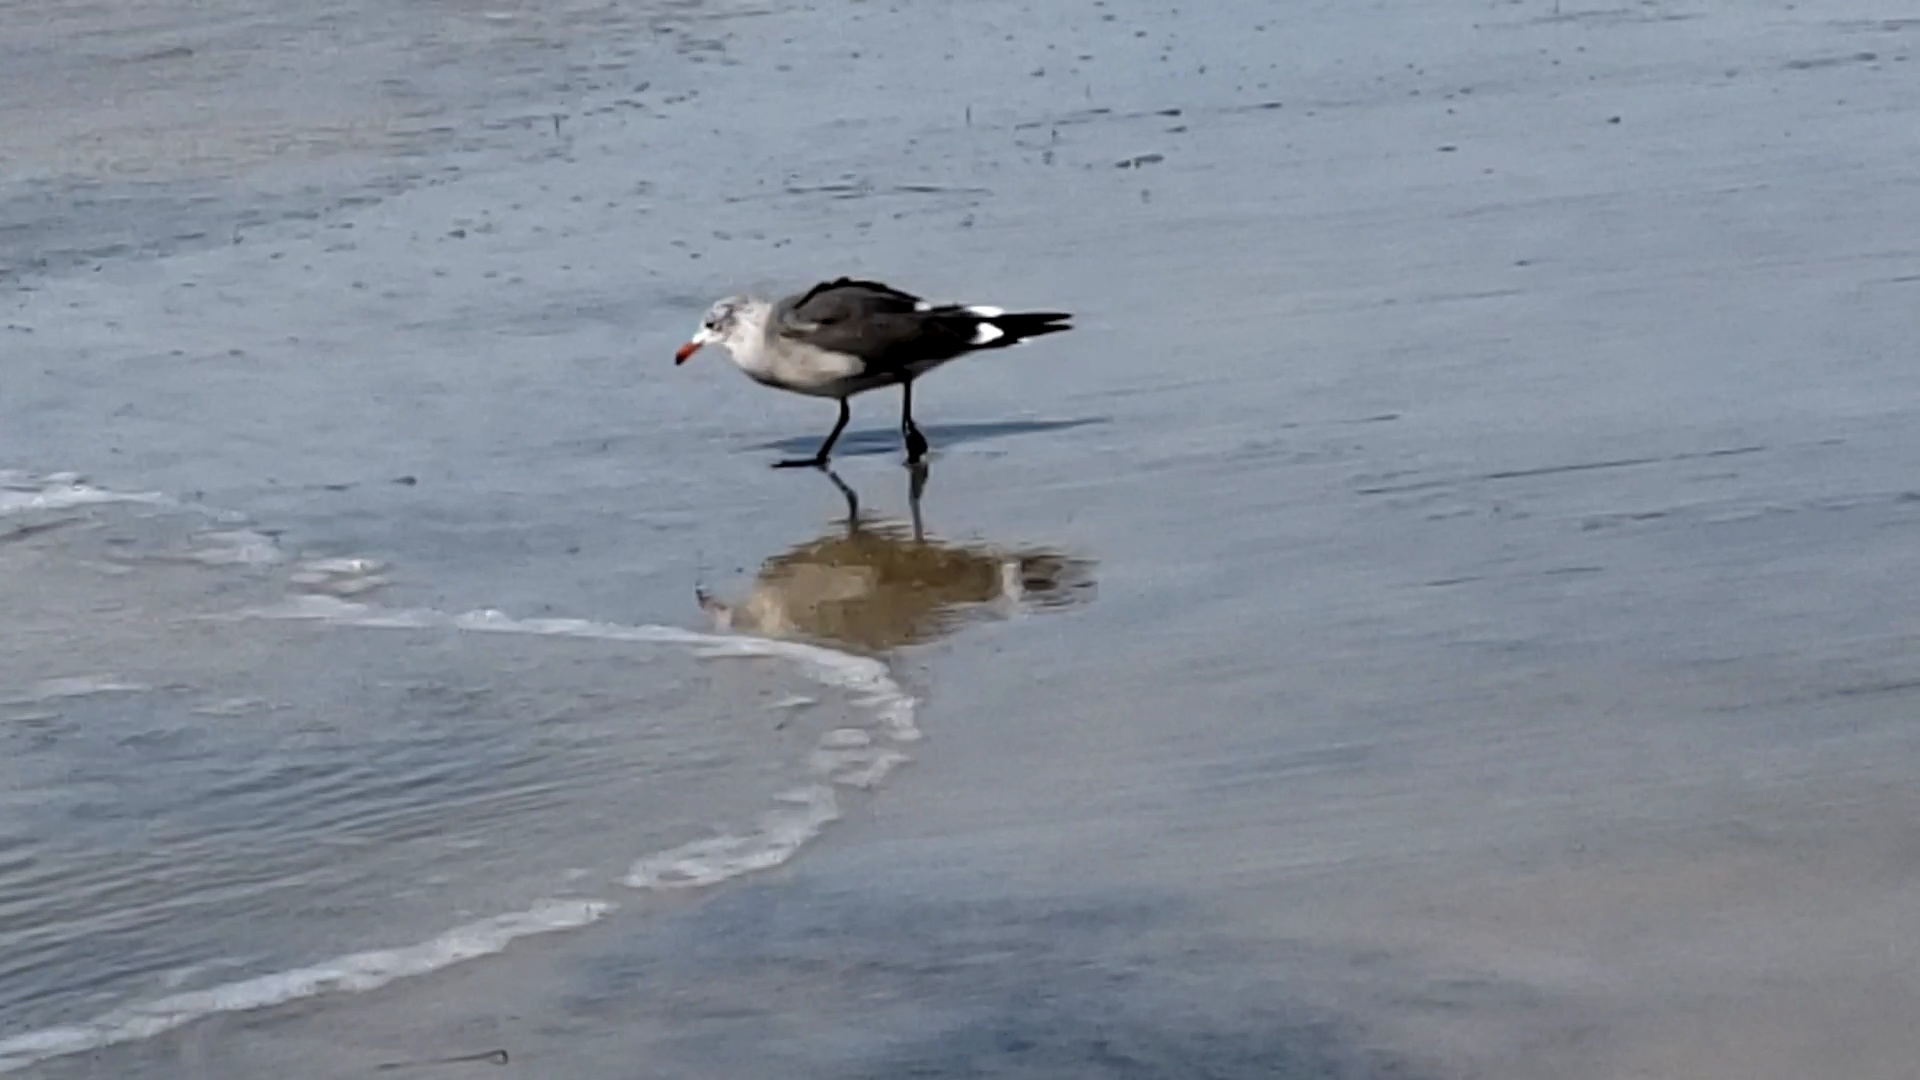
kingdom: Animalia
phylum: Chordata
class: Aves
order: Charadriiformes
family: Laridae
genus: Larus
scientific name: Larus heermanni
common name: Heermann's gull
